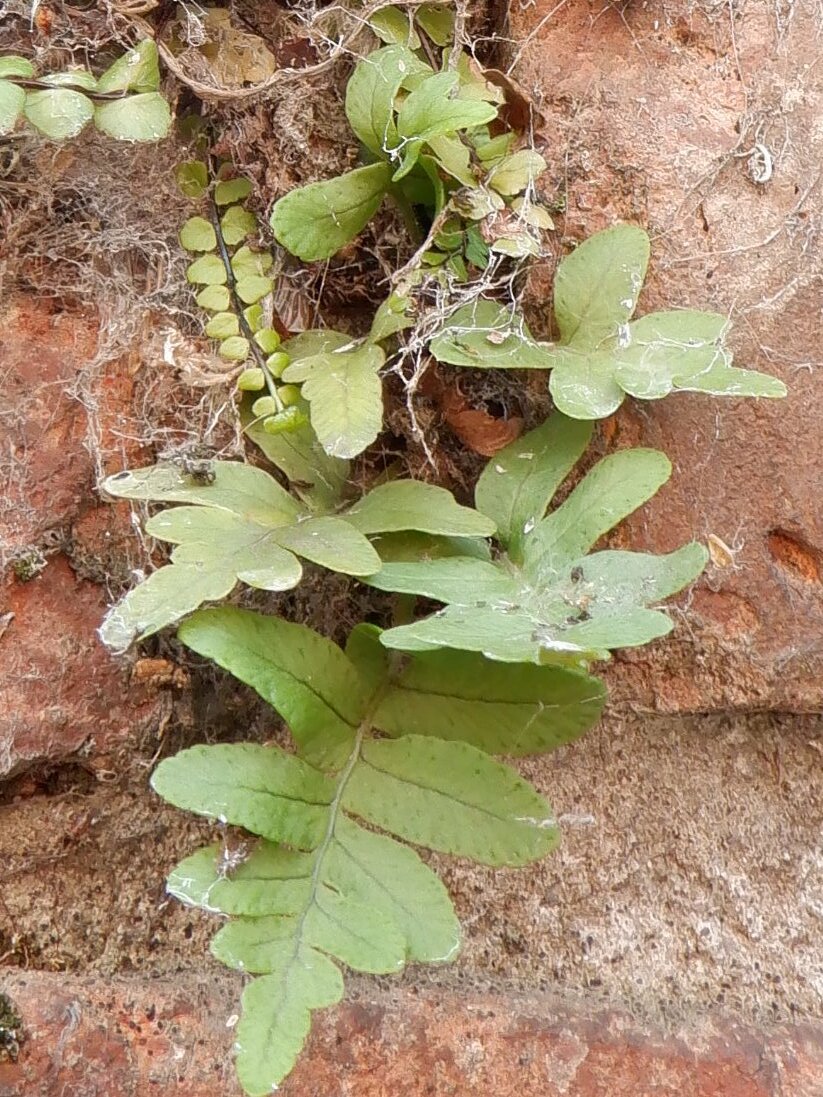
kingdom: Plantae
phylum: Tracheophyta
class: Polypodiopsida
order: Polypodiales
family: Polypodiaceae
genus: Polypodium
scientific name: Polypodium
